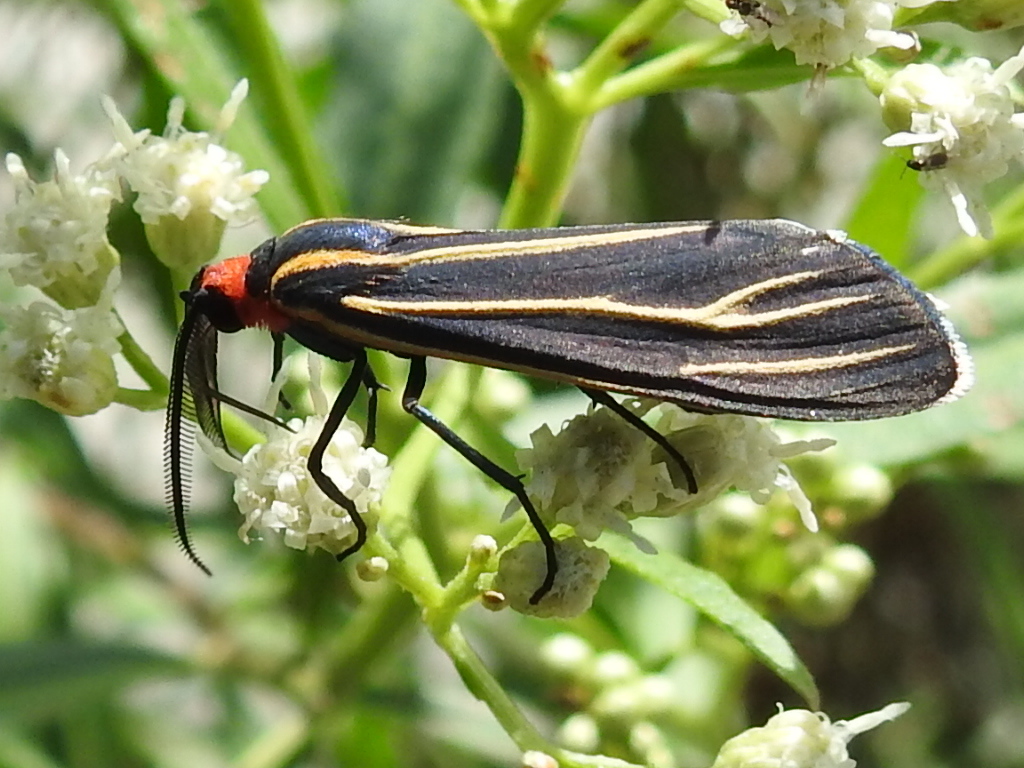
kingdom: Animalia
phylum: Arthropoda
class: Insecta
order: Lepidoptera
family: Erebidae
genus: Ctenucha
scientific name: Ctenucha venosa
